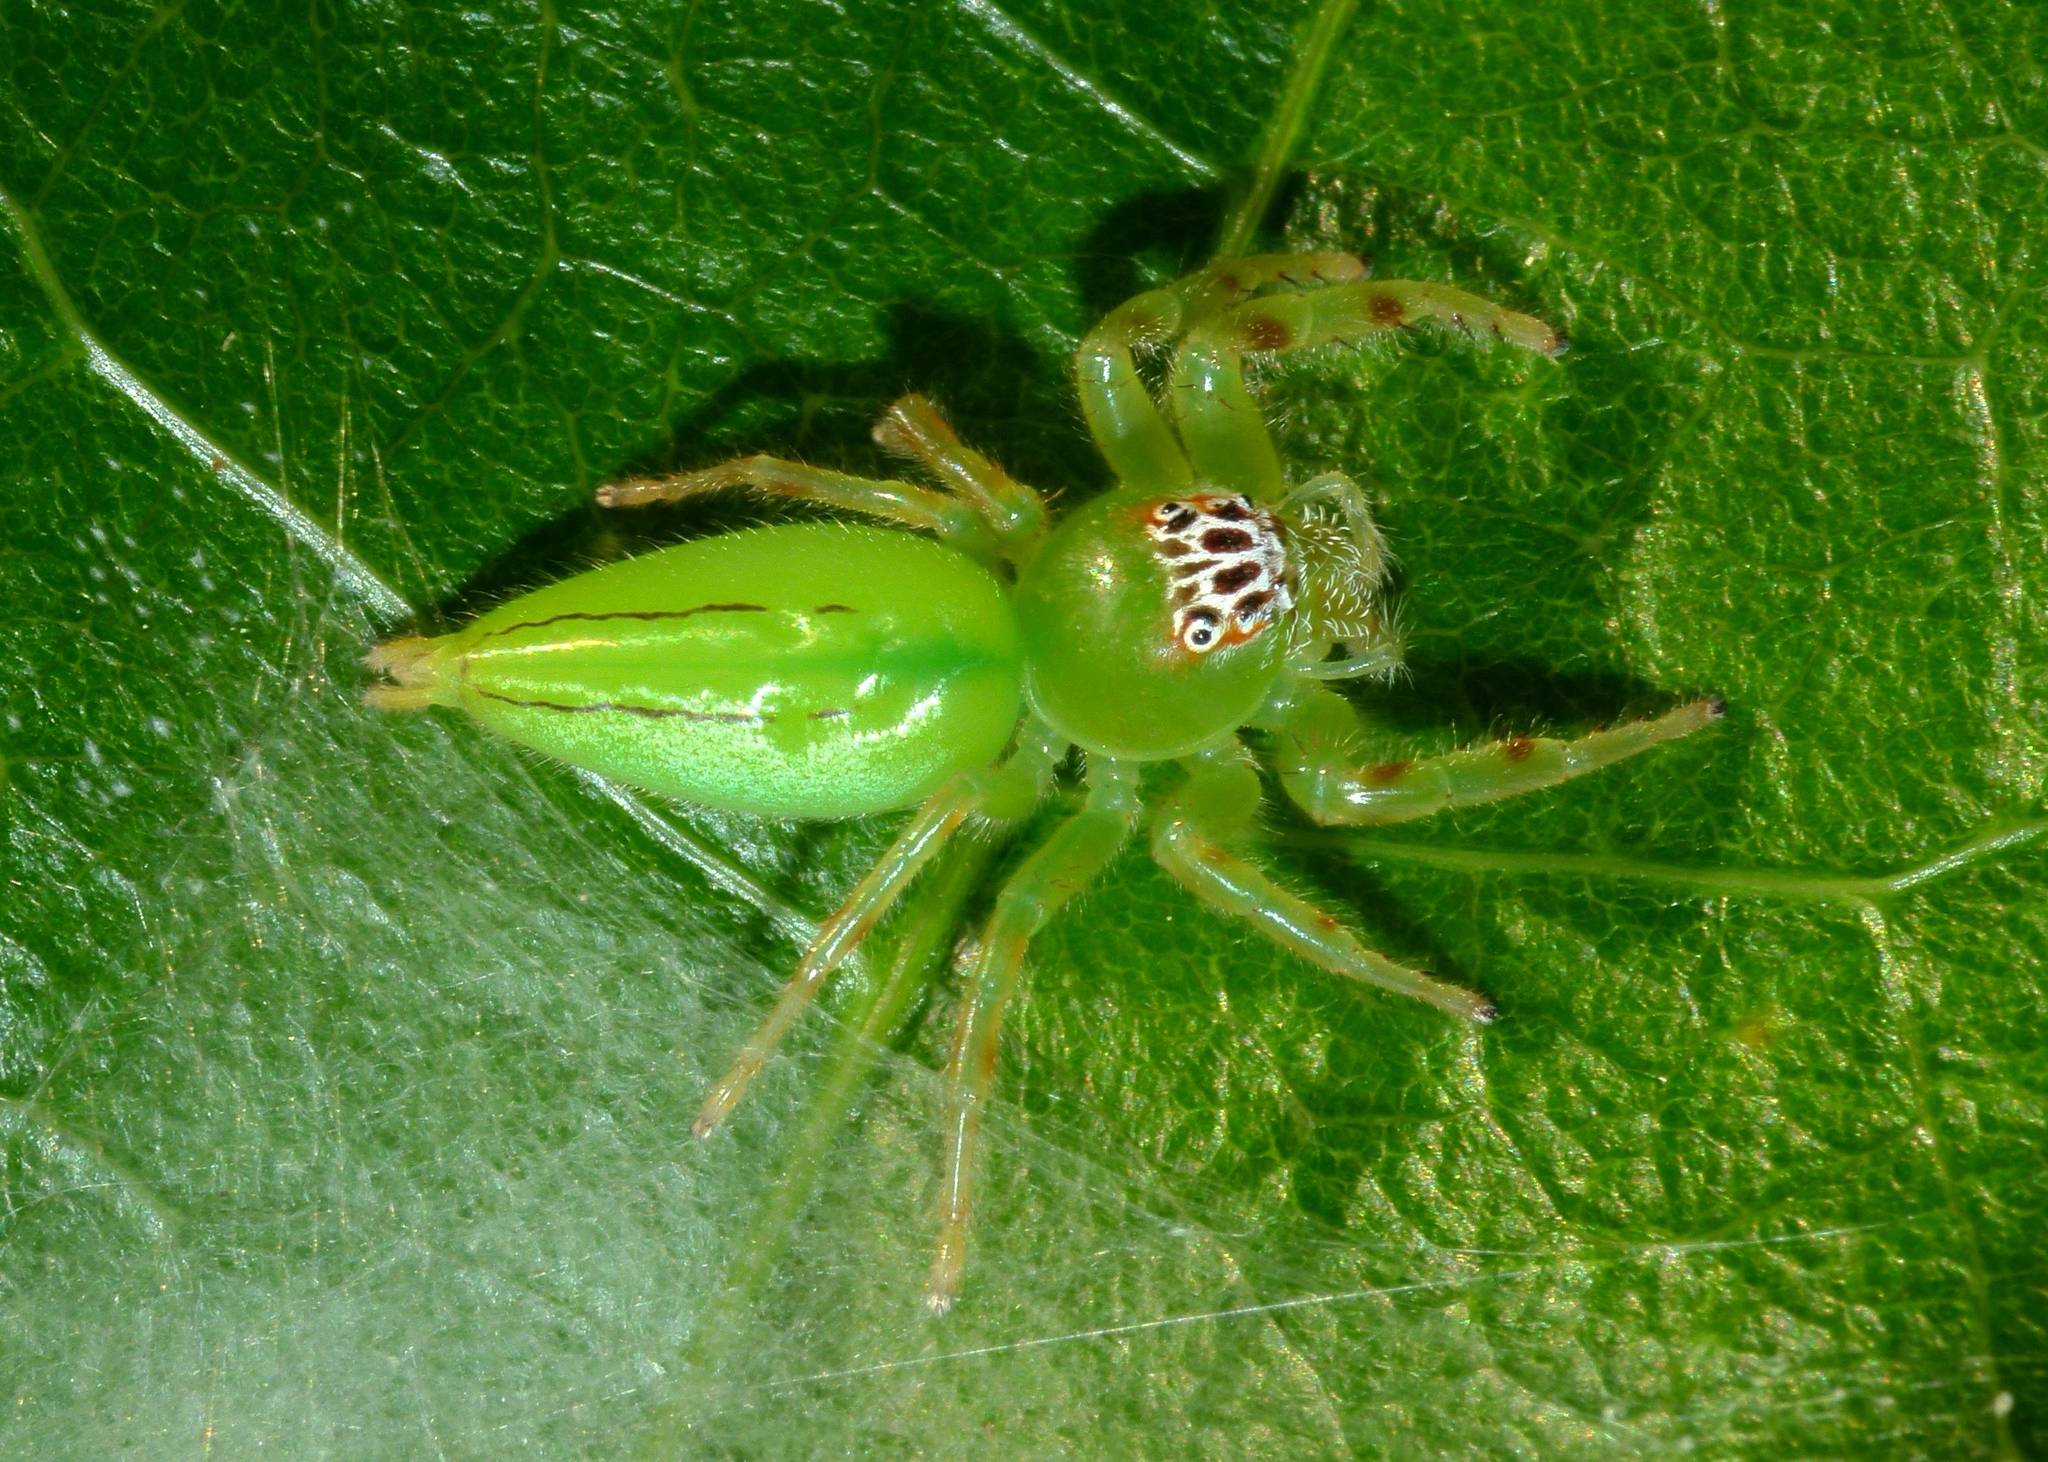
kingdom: Animalia
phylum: Arthropoda
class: Arachnida
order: Araneae
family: Salticidae
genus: Mopsus
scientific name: Mopsus mormon
